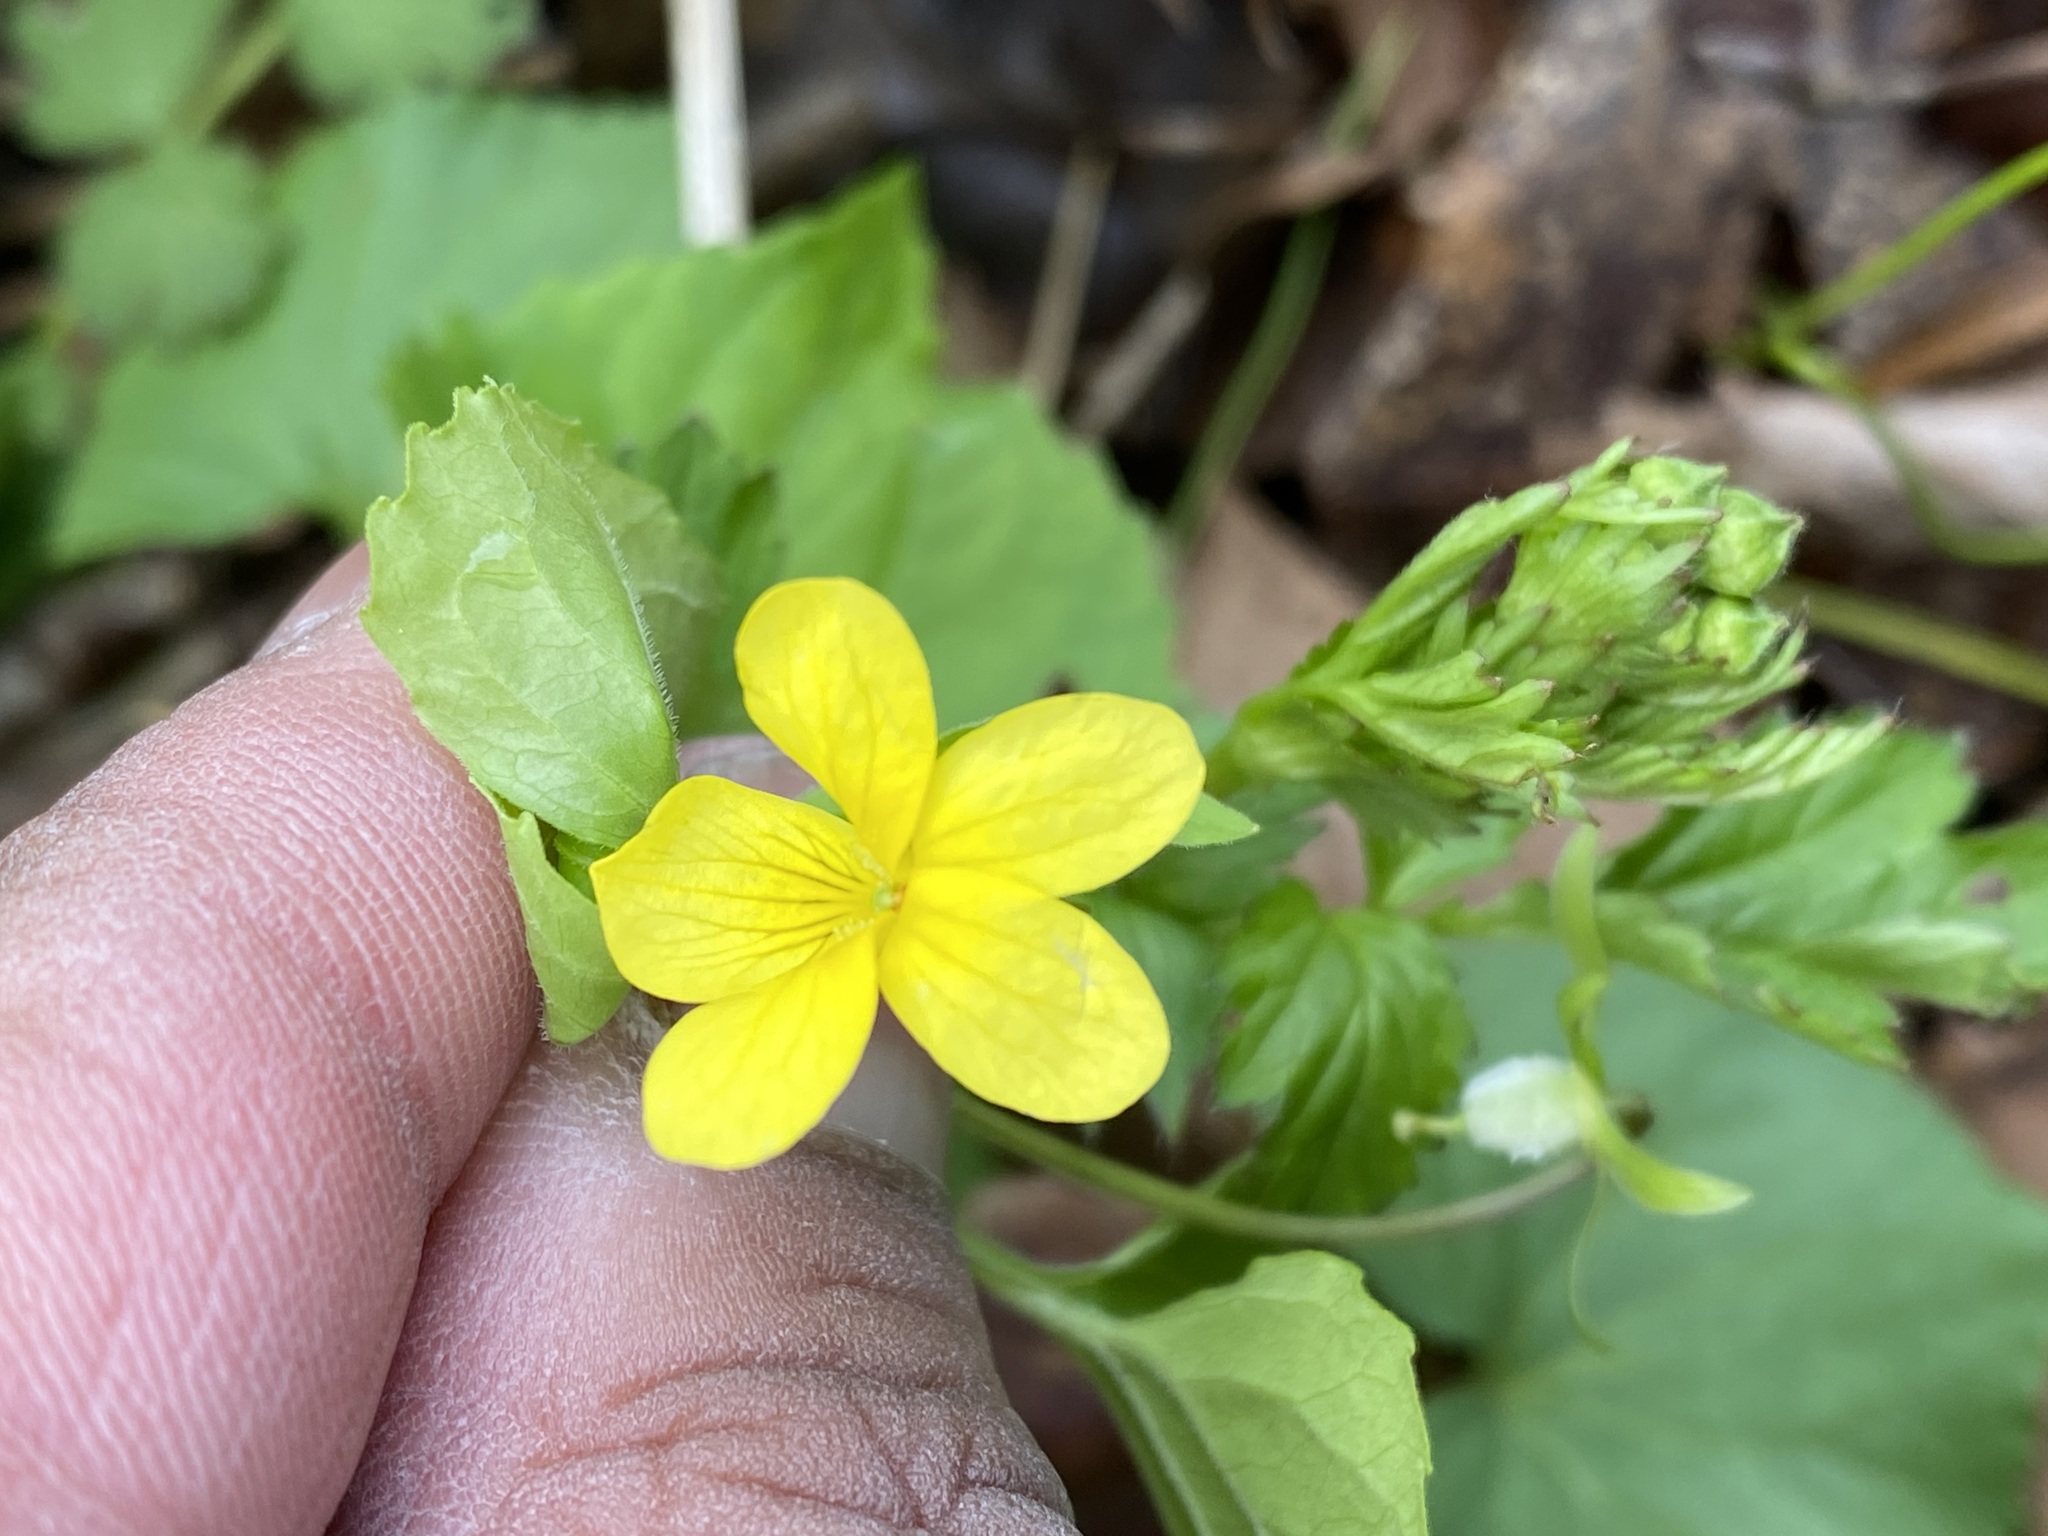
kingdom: Plantae
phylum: Tracheophyta
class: Magnoliopsida
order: Malpighiales
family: Violaceae
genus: Viola
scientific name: Viola eriocarpa
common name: Smooth yellow violet
